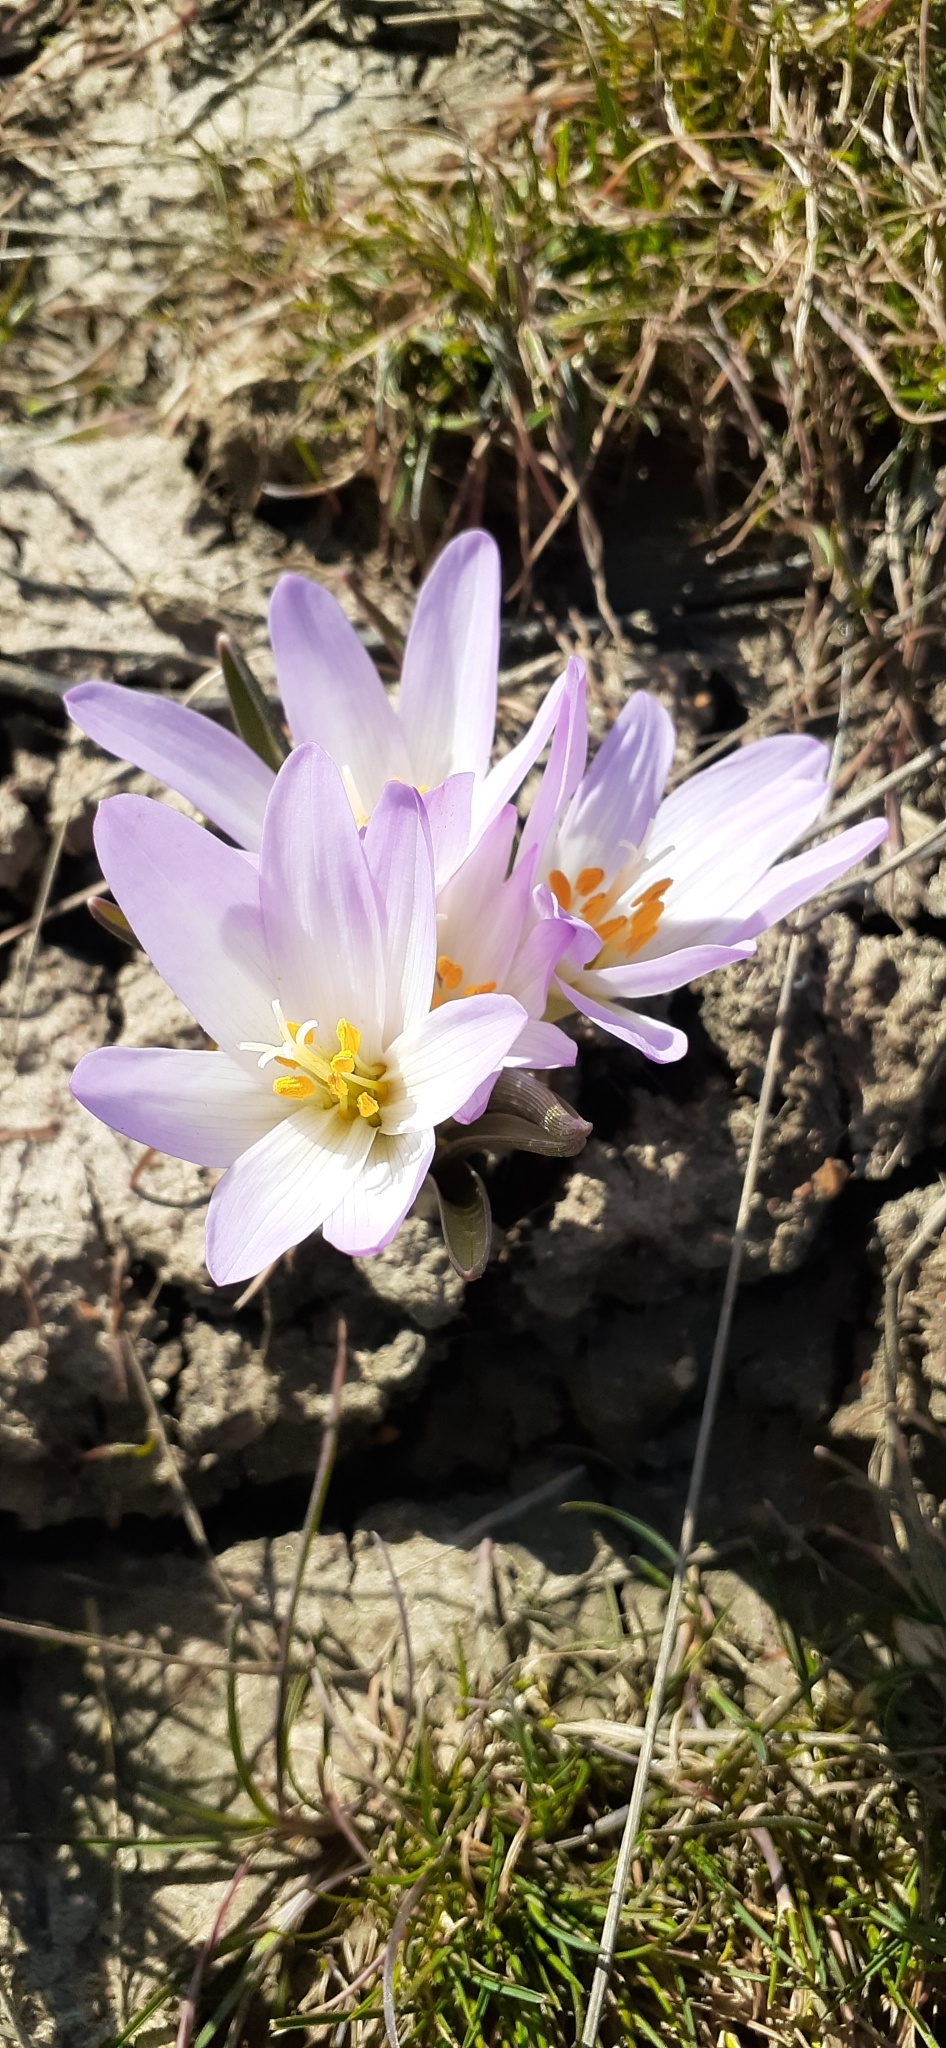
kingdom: Plantae
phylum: Tracheophyta
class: Liliopsida
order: Liliales
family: Colchicaceae
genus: Colchicum
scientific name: Colchicum bulbocodium
